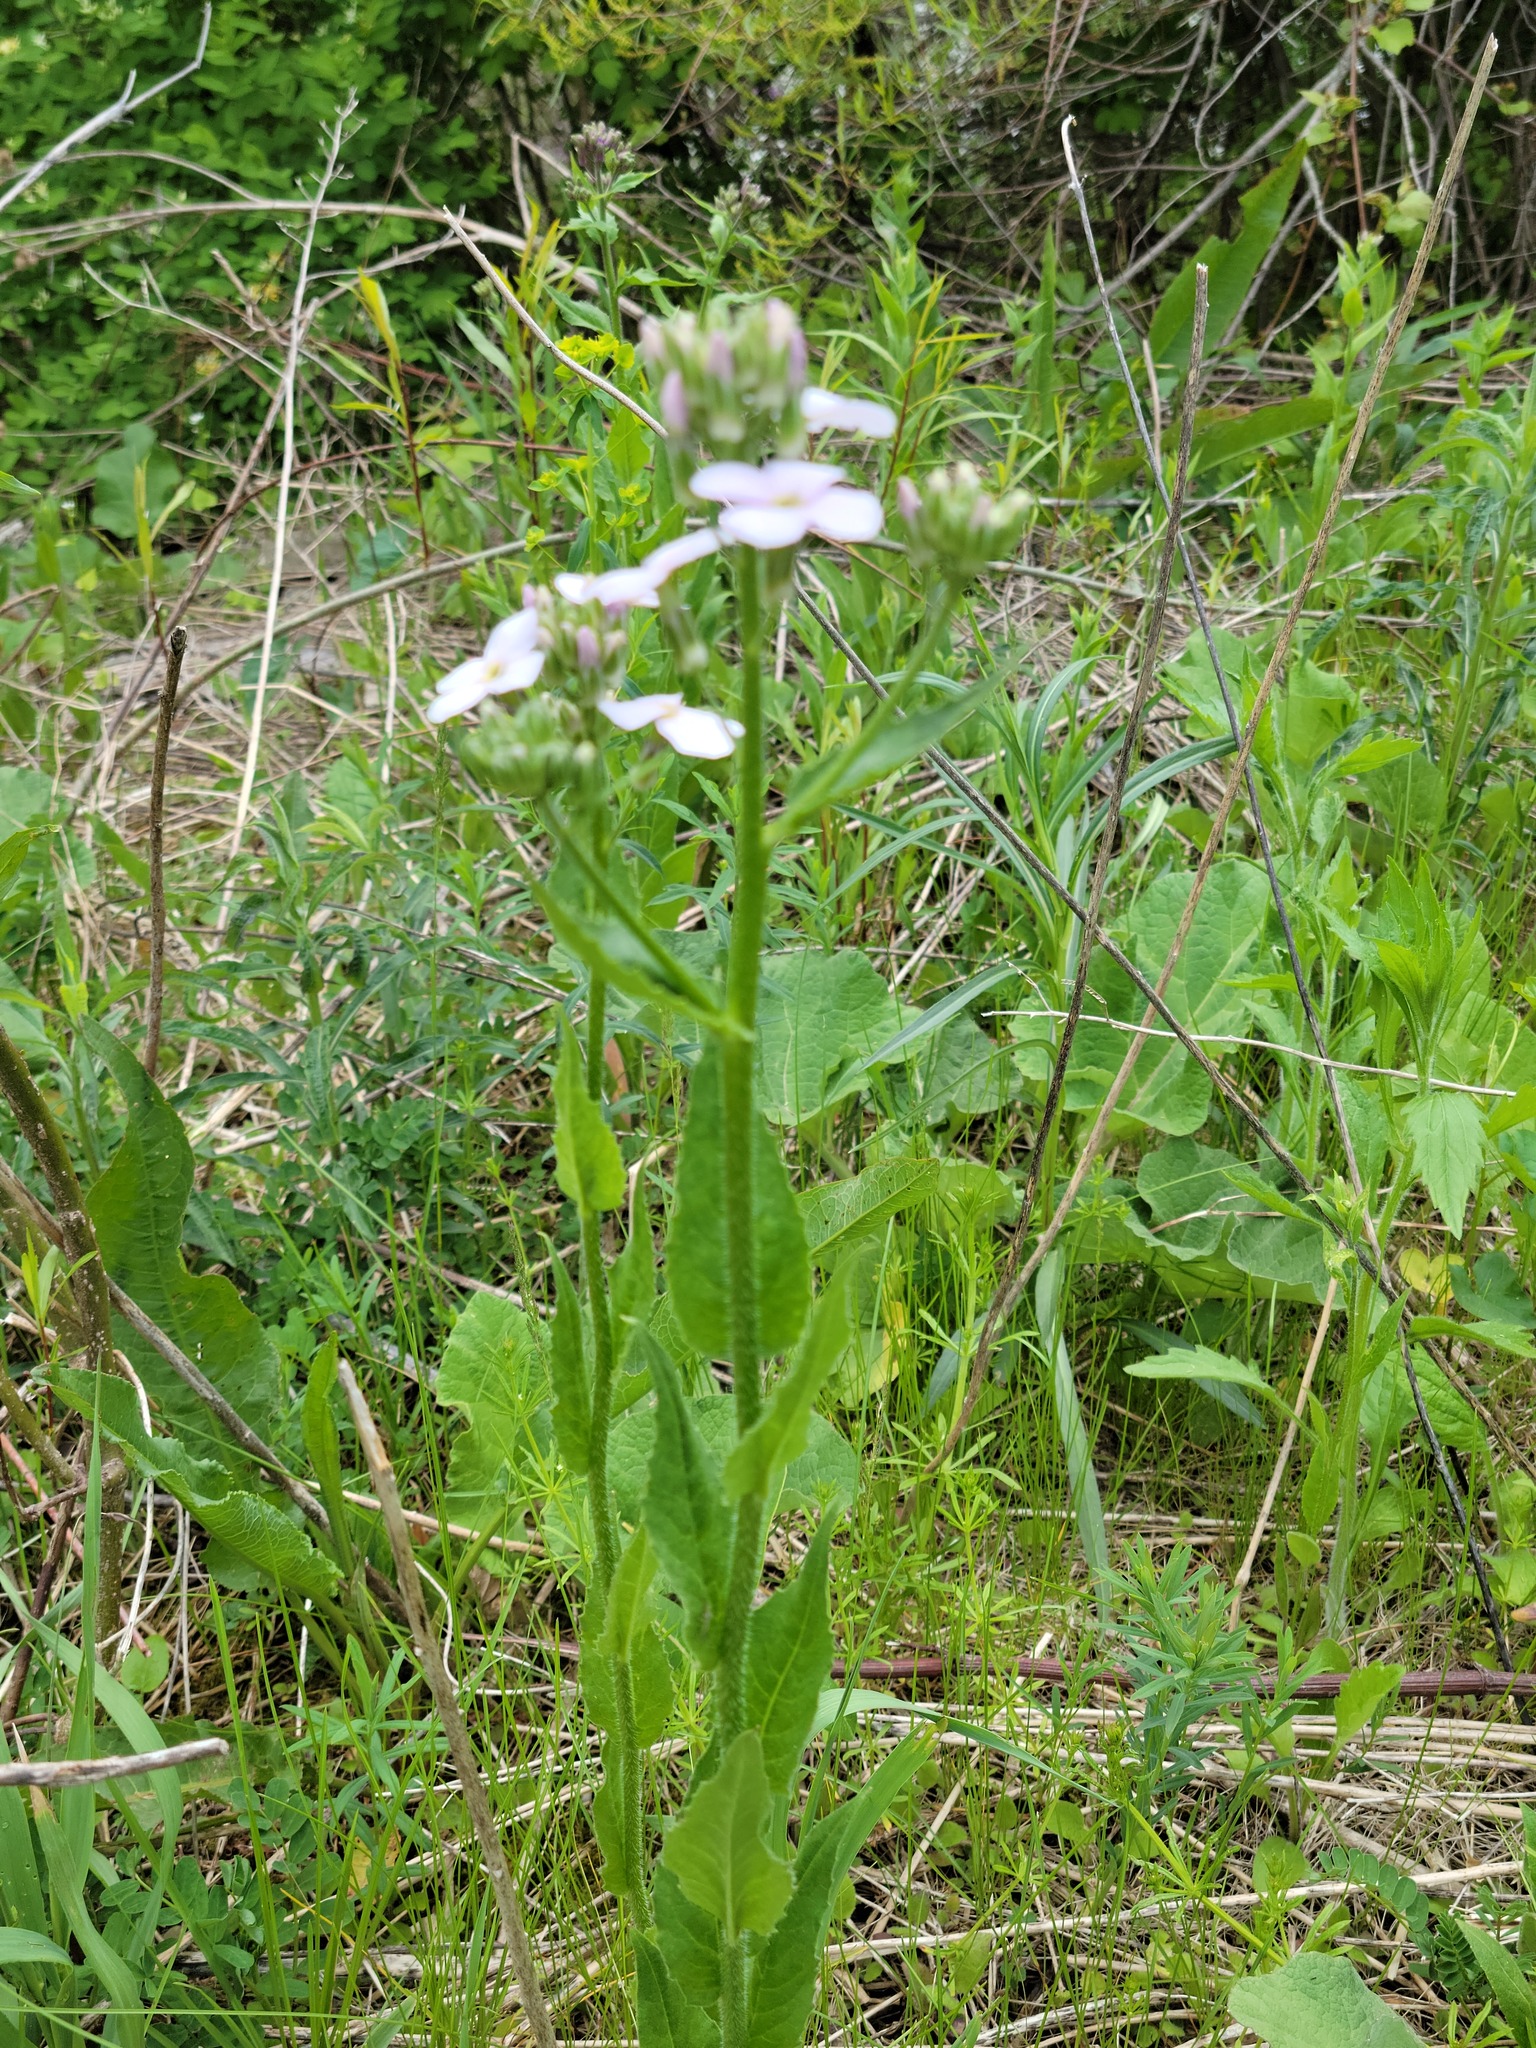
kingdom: Plantae
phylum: Tracheophyta
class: Magnoliopsida
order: Brassicales
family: Brassicaceae
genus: Hesperis
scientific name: Hesperis matronalis
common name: Dame's-violet
